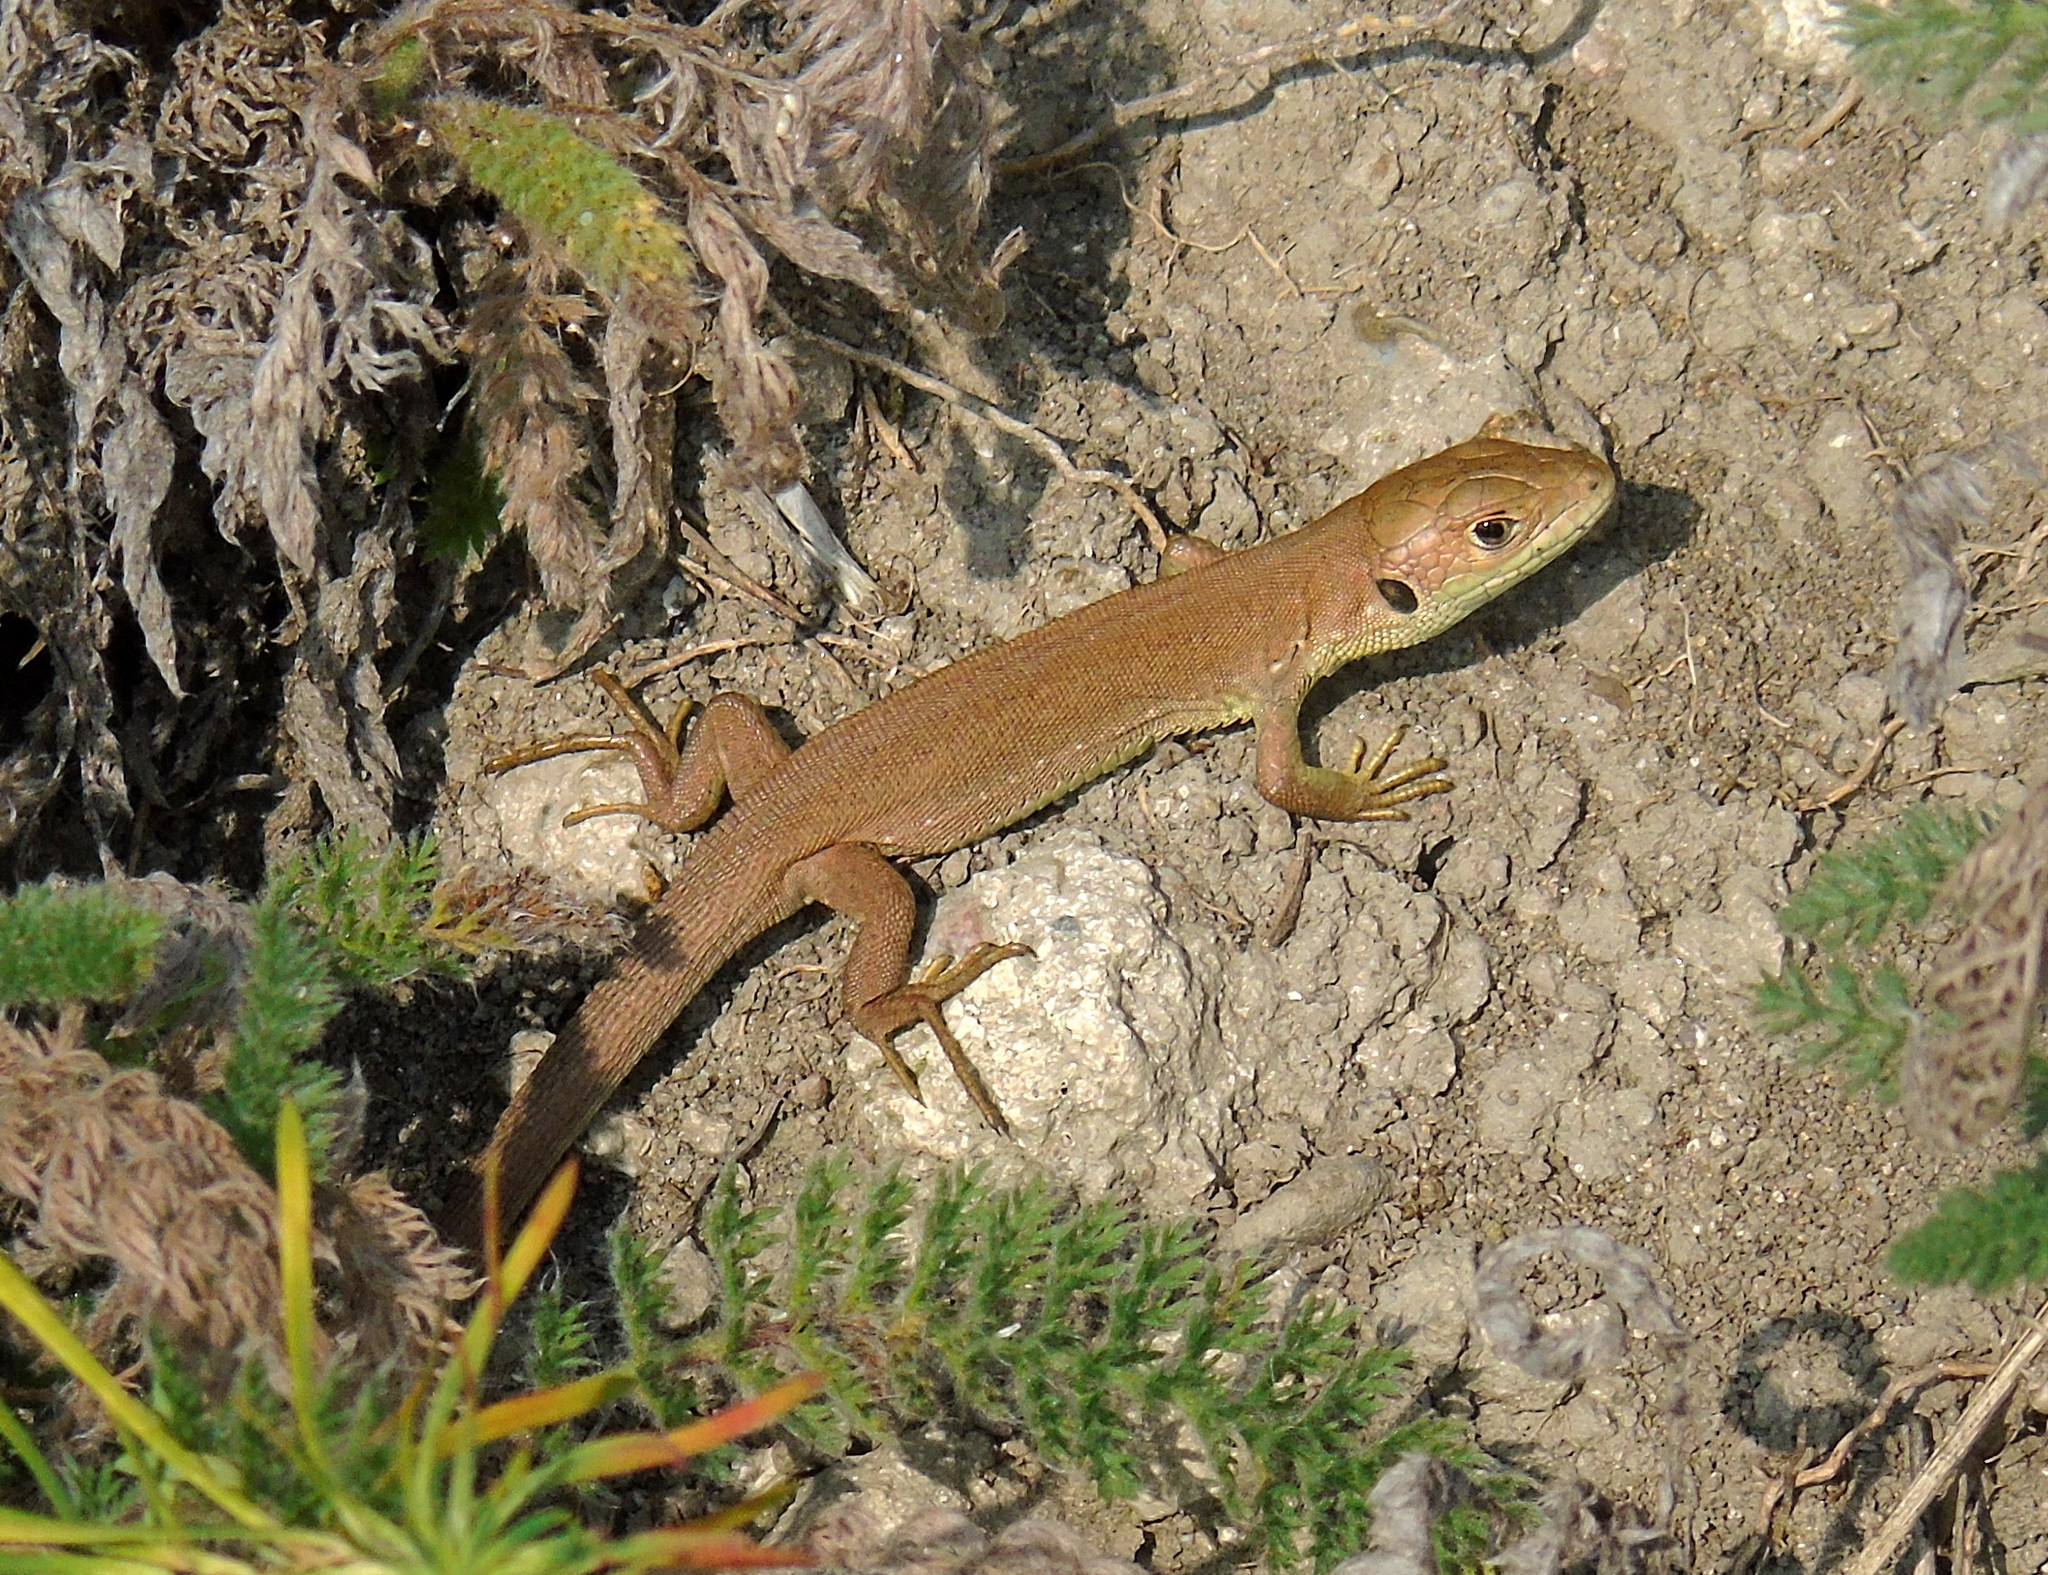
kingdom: Animalia
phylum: Chordata
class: Squamata
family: Lacertidae
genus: Lacerta
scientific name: Lacerta viridis
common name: European green lizard
